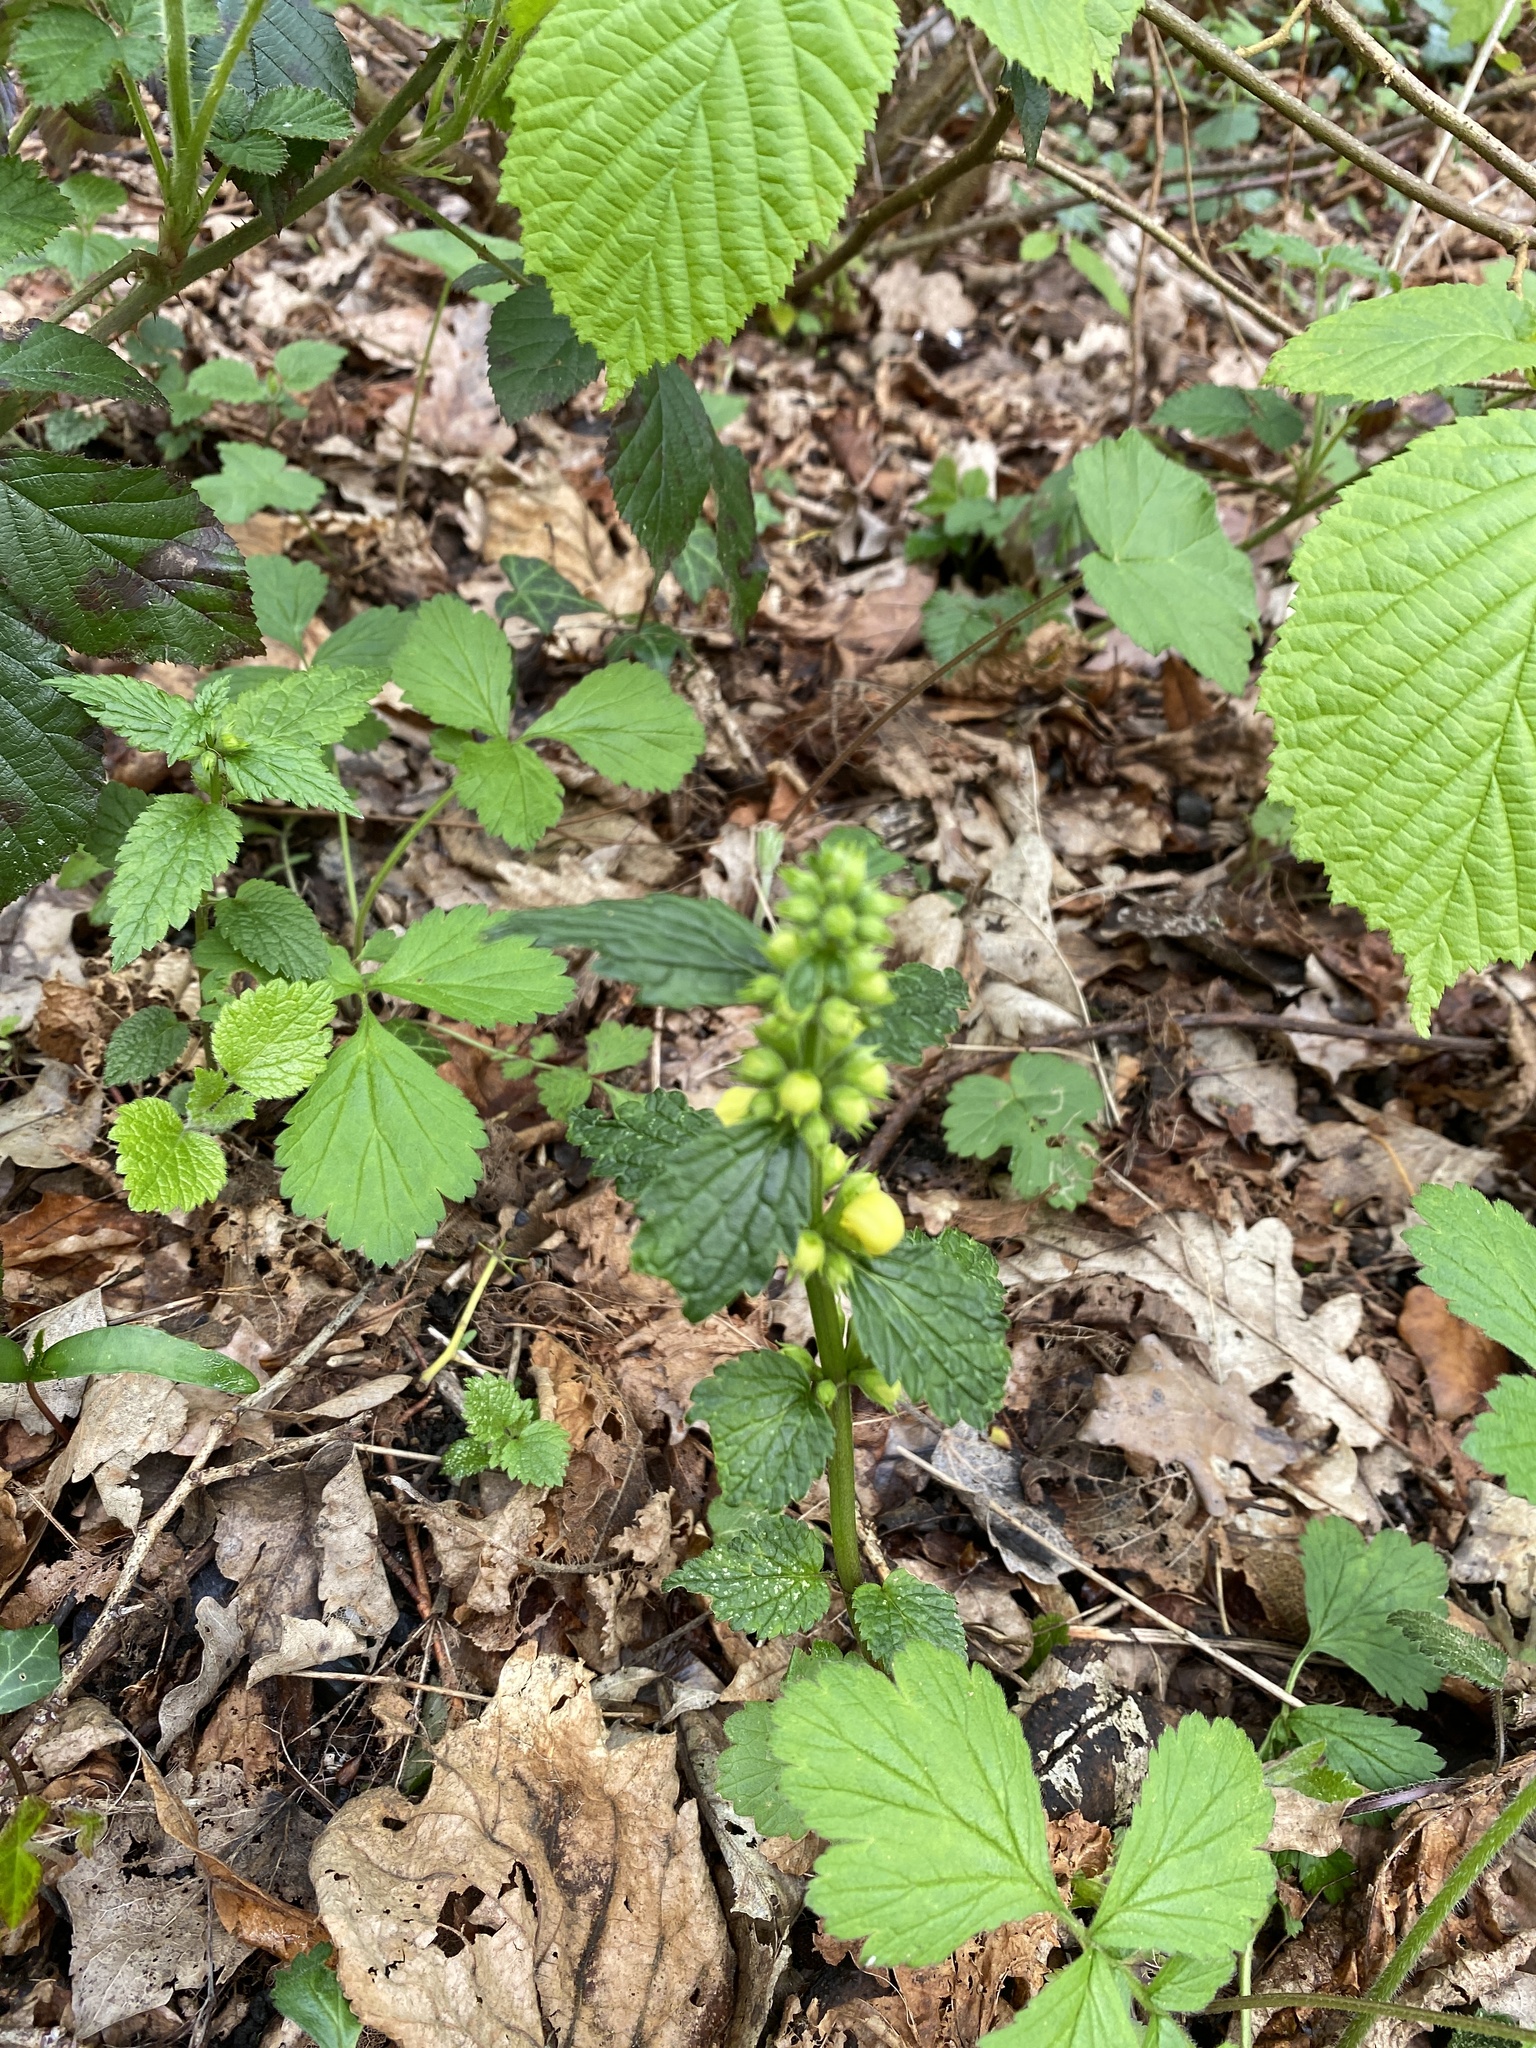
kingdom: Plantae
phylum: Tracheophyta
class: Magnoliopsida
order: Lamiales
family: Lamiaceae
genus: Lamium
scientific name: Lamium galeobdolon
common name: Yellow archangel
